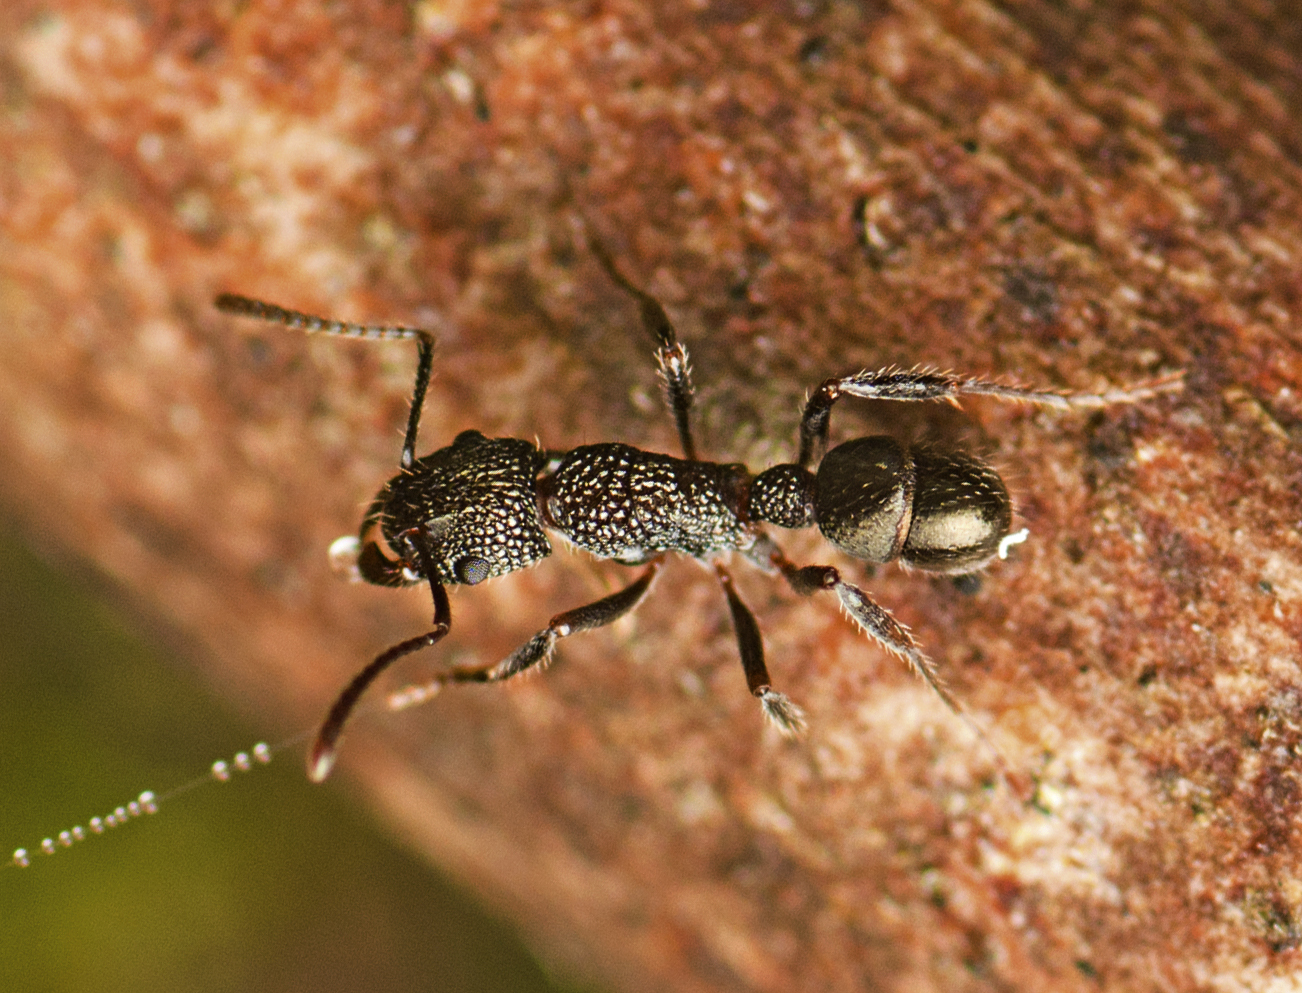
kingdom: Animalia
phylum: Arthropoda
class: Insecta
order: Hymenoptera
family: Formicidae
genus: Rhytidoponera
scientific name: Rhytidoponera anceps
